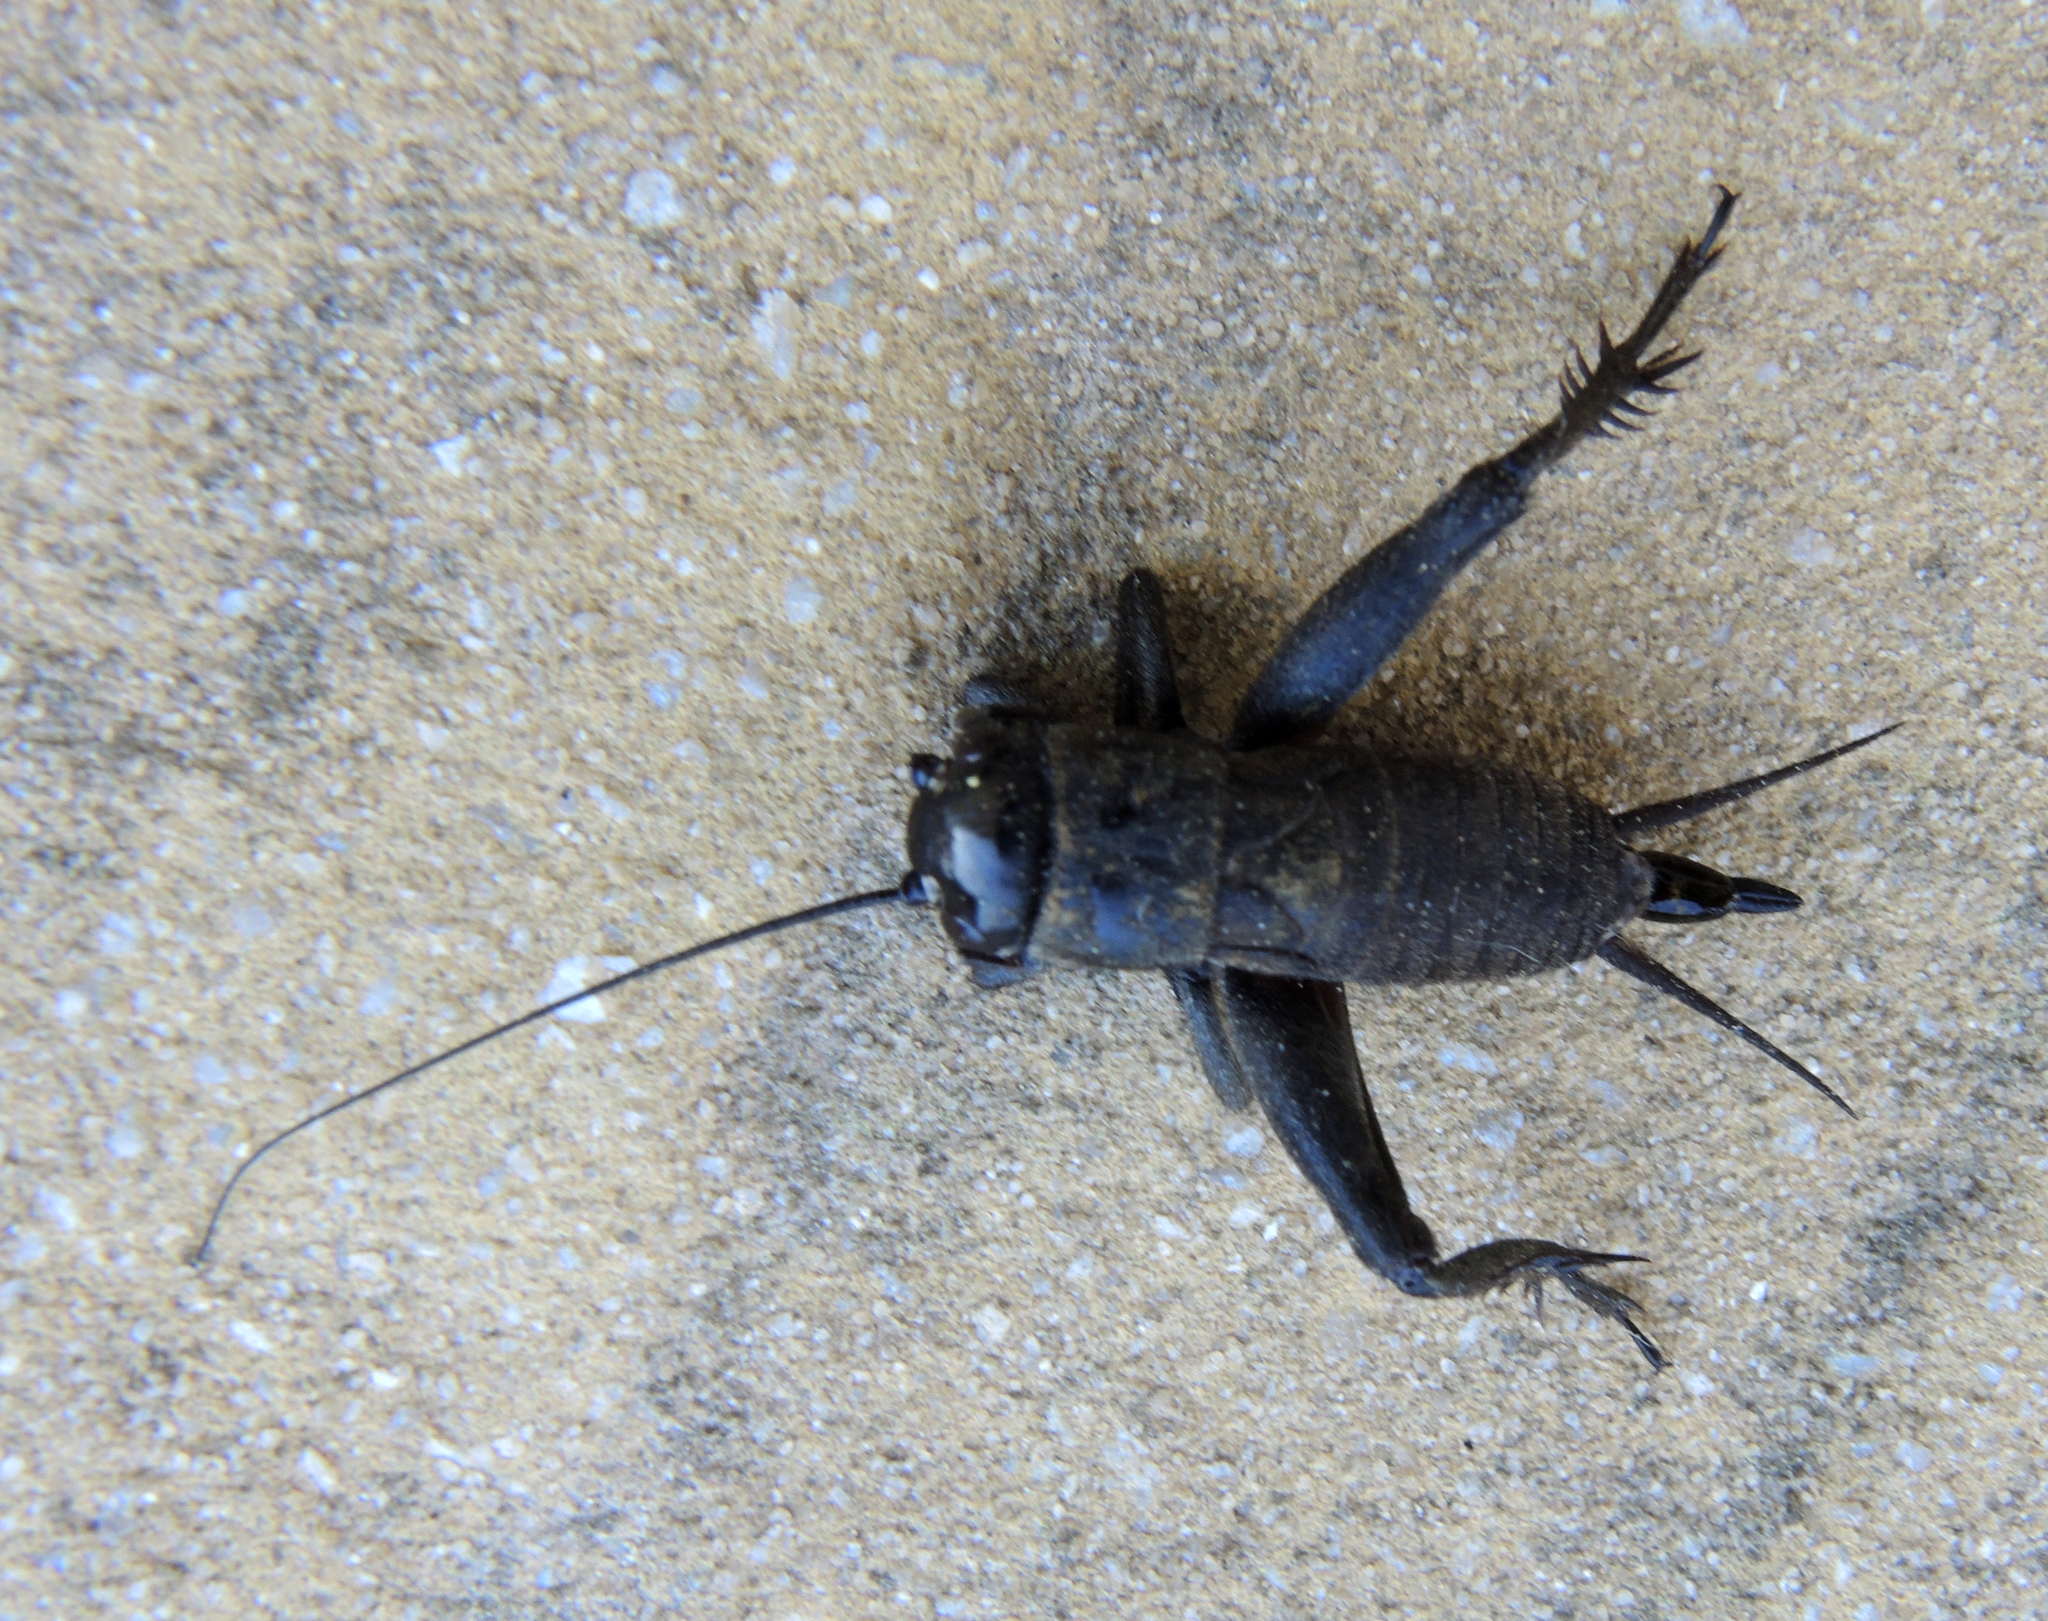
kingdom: Animalia
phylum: Arthropoda
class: Insecta
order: Orthoptera
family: Gryllidae
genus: Melanogryllus
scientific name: Melanogryllus desertus
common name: Desert cricket
